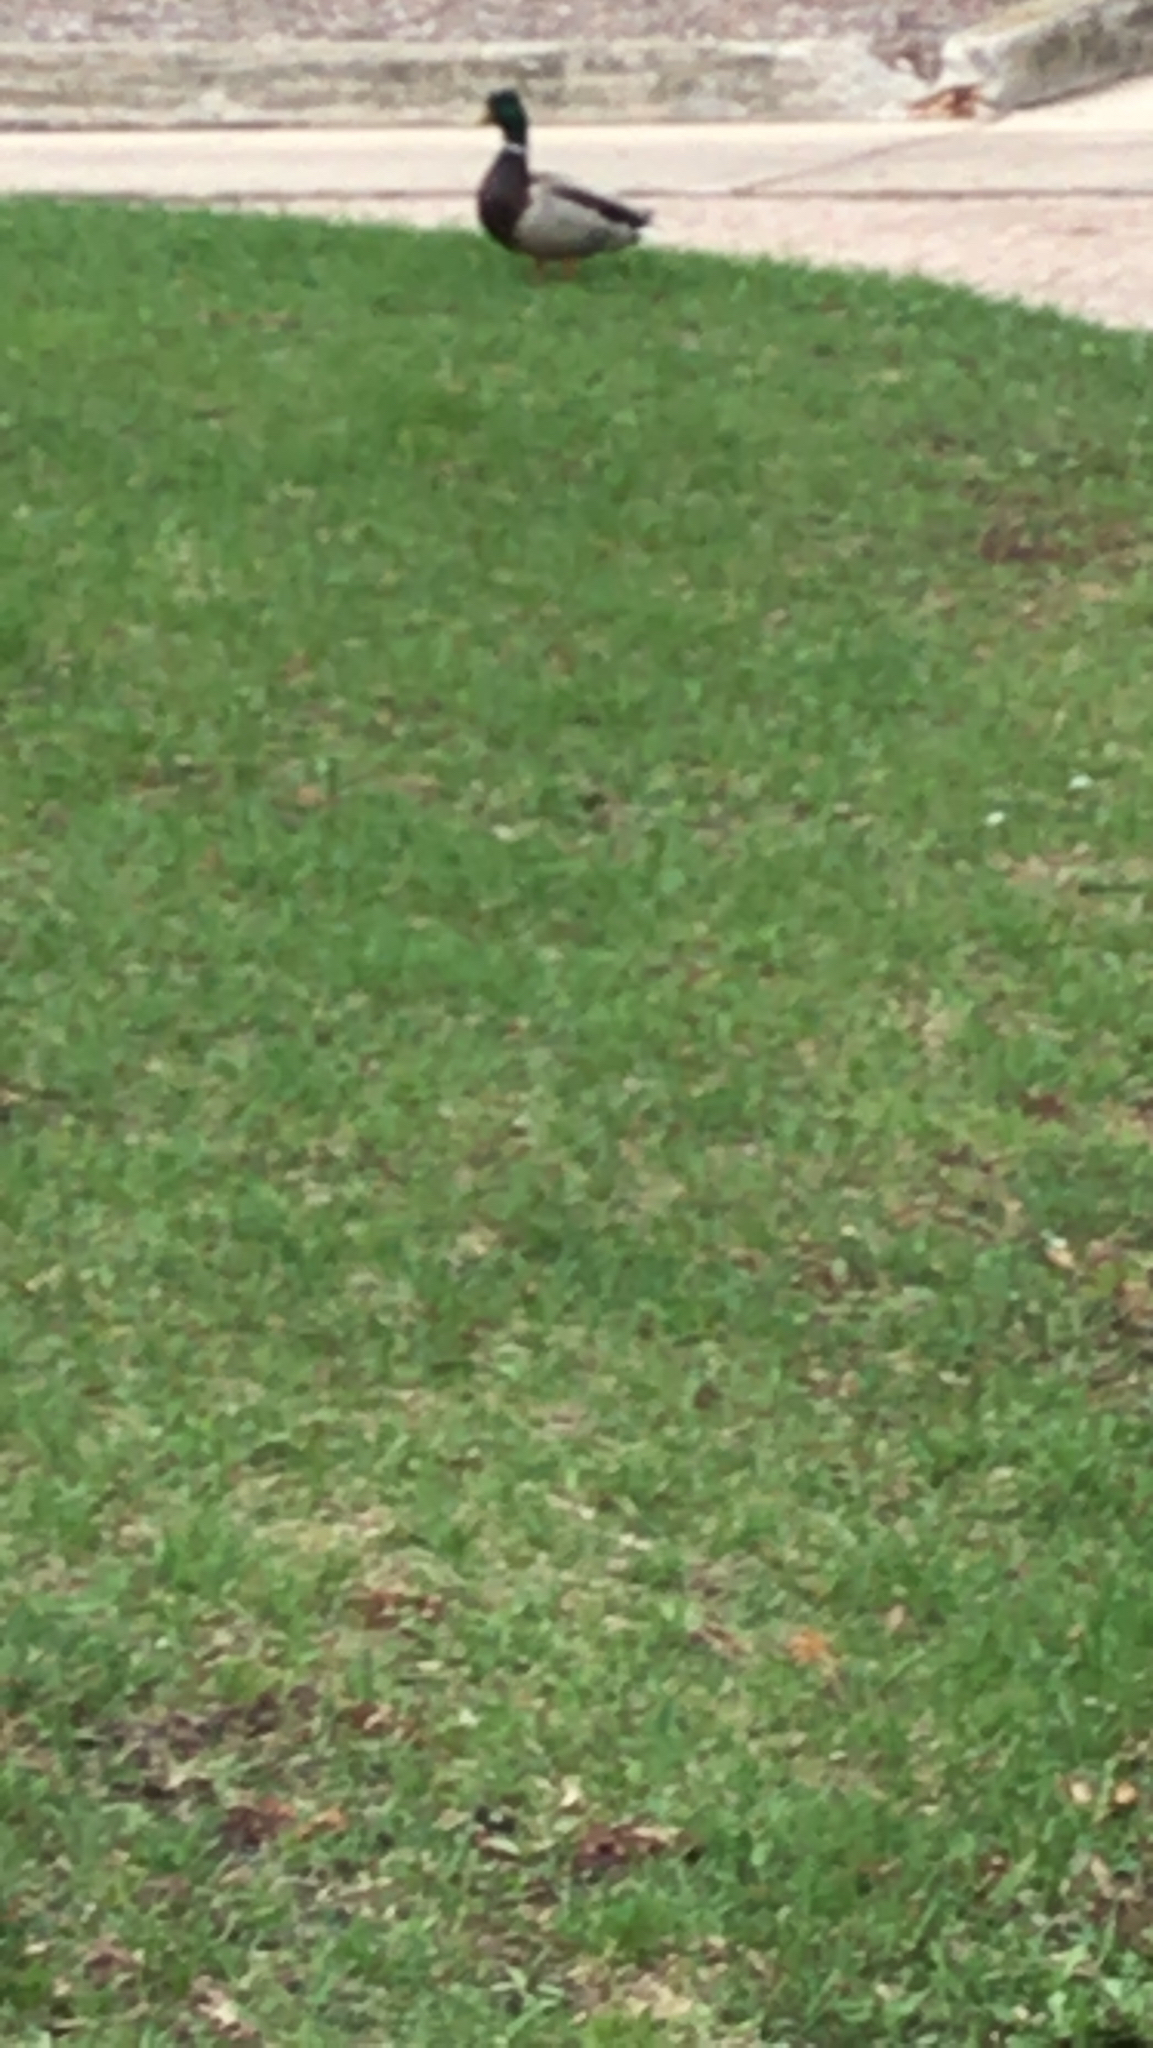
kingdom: Animalia
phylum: Chordata
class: Aves
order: Anseriformes
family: Anatidae
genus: Anas
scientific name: Anas platyrhynchos
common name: Mallard
